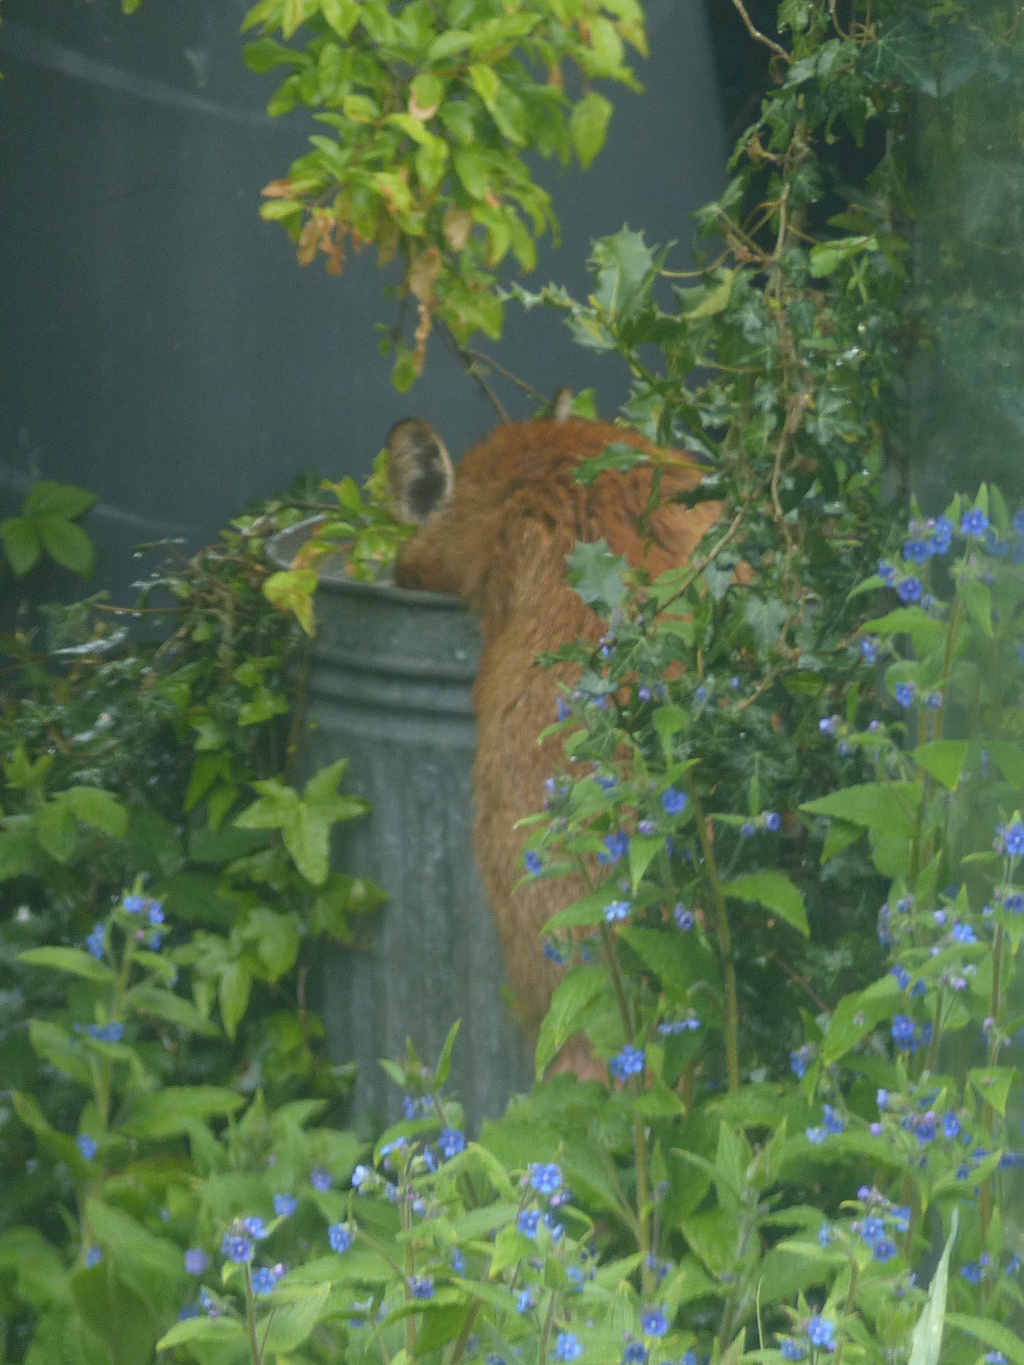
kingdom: Animalia
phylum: Chordata
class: Mammalia
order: Carnivora
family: Canidae
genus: Vulpes
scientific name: Vulpes vulpes
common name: Red fox
